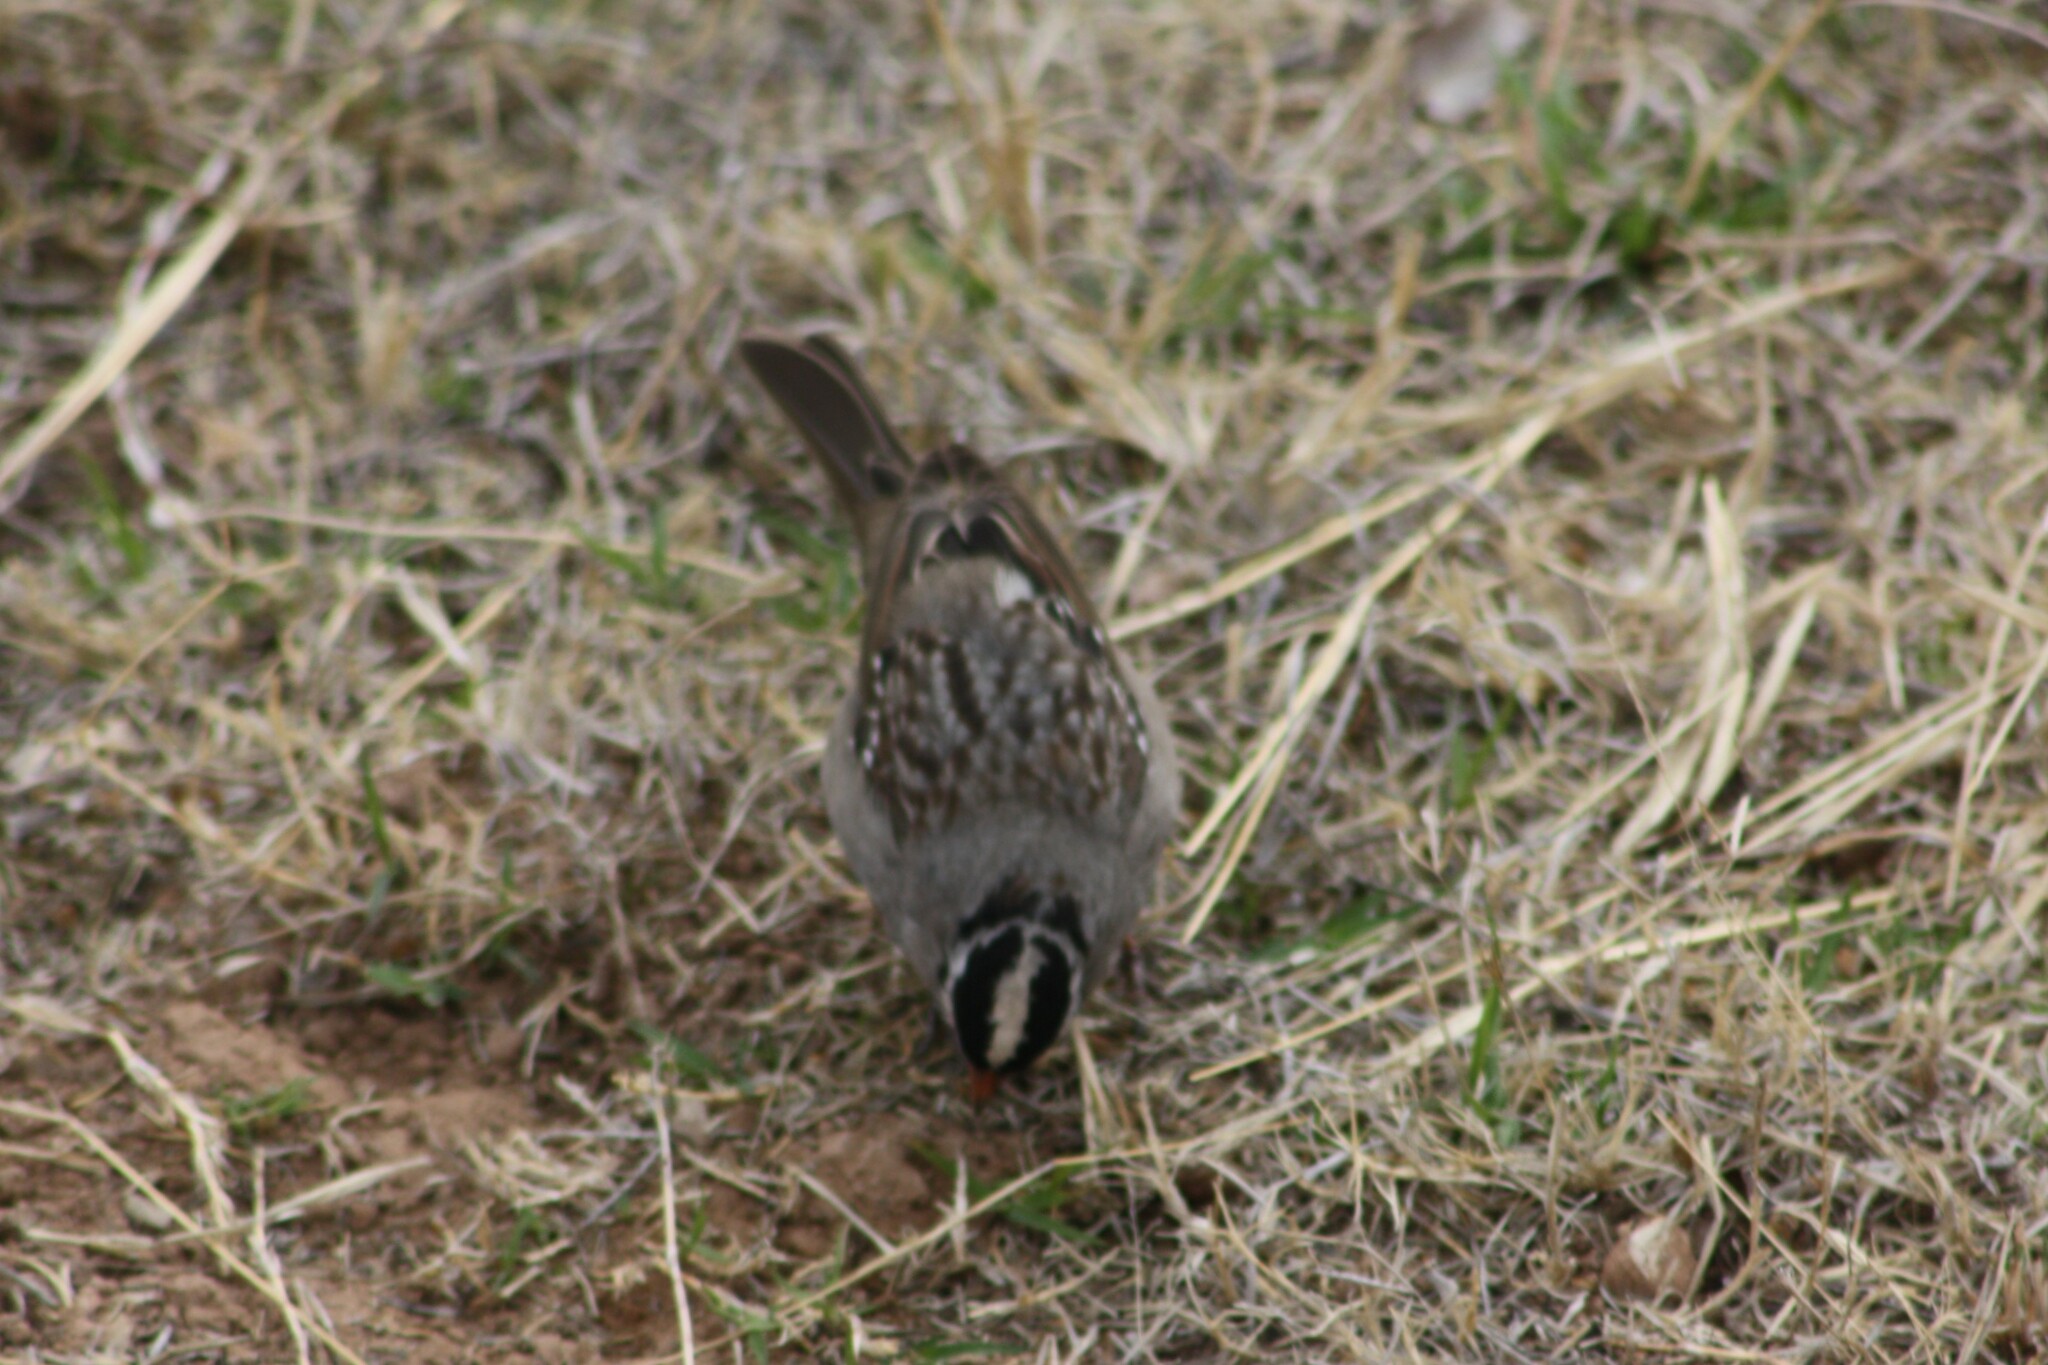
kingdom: Animalia
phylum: Chordata
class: Aves
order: Passeriformes
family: Passerellidae
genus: Zonotrichia
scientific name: Zonotrichia leucophrys
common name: White-crowned sparrow
